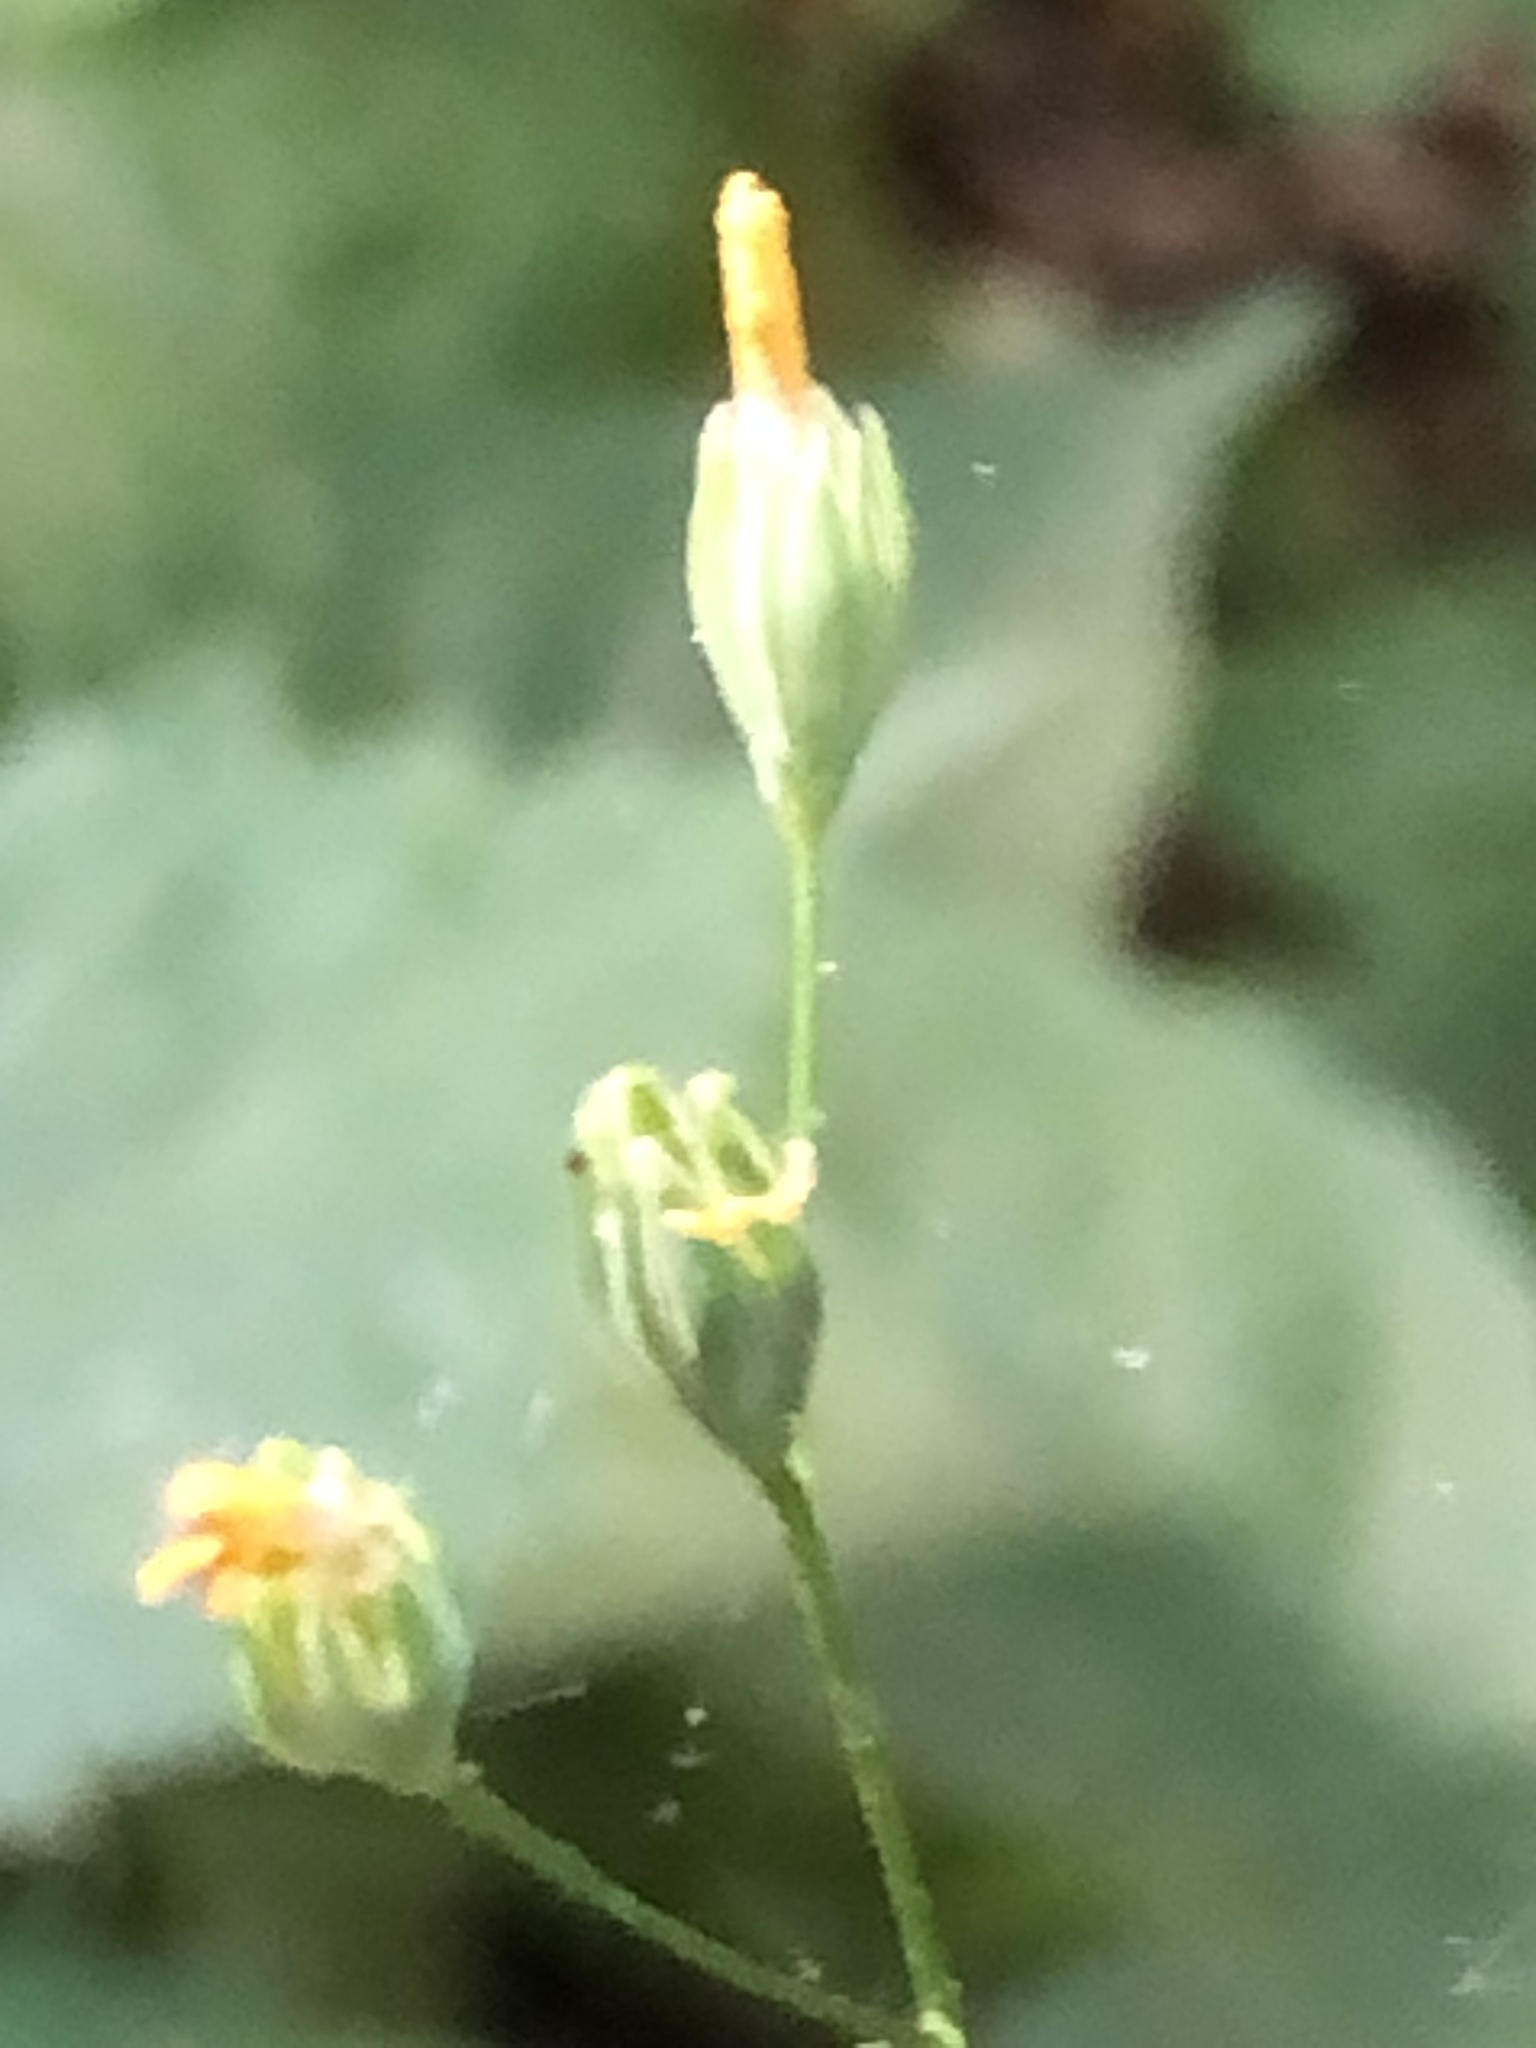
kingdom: Plantae
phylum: Tracheophyta
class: Magnoliopsida
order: Asterales
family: Asteraceae
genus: Lapsana
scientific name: Lapsana communis
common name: Nipplewort
